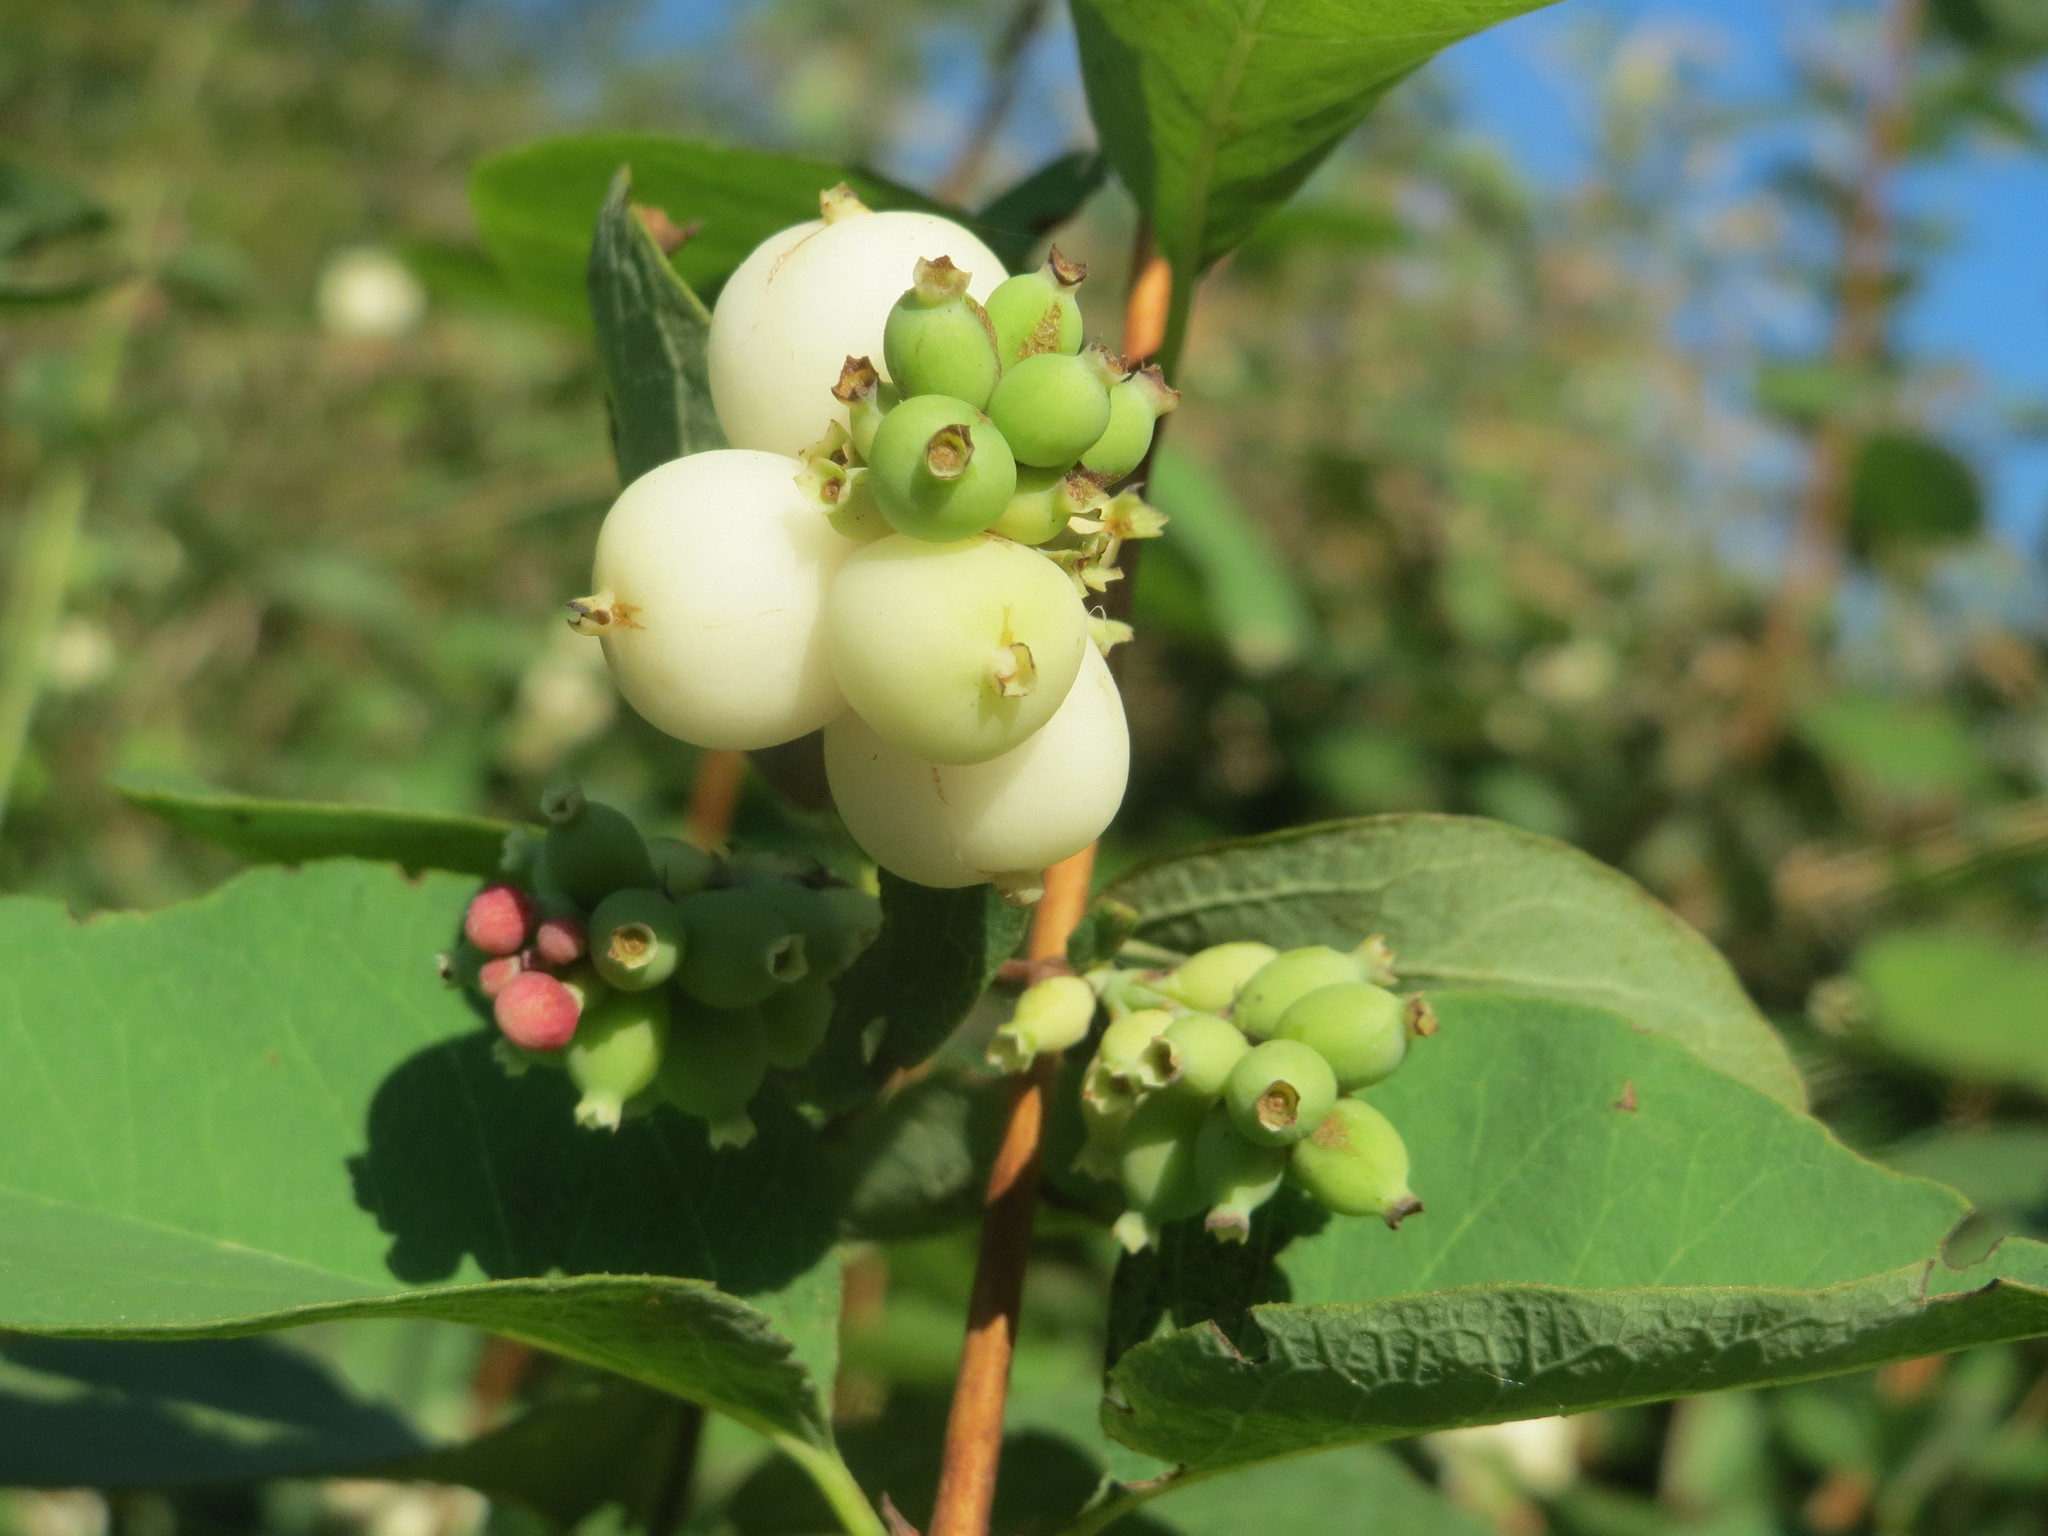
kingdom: Plantae
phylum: Tracheophyta
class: Magnoliopsida
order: Dipsacales
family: Caprifoliaceae
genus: Symphoricarpos
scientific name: Symphoricarpos albus
